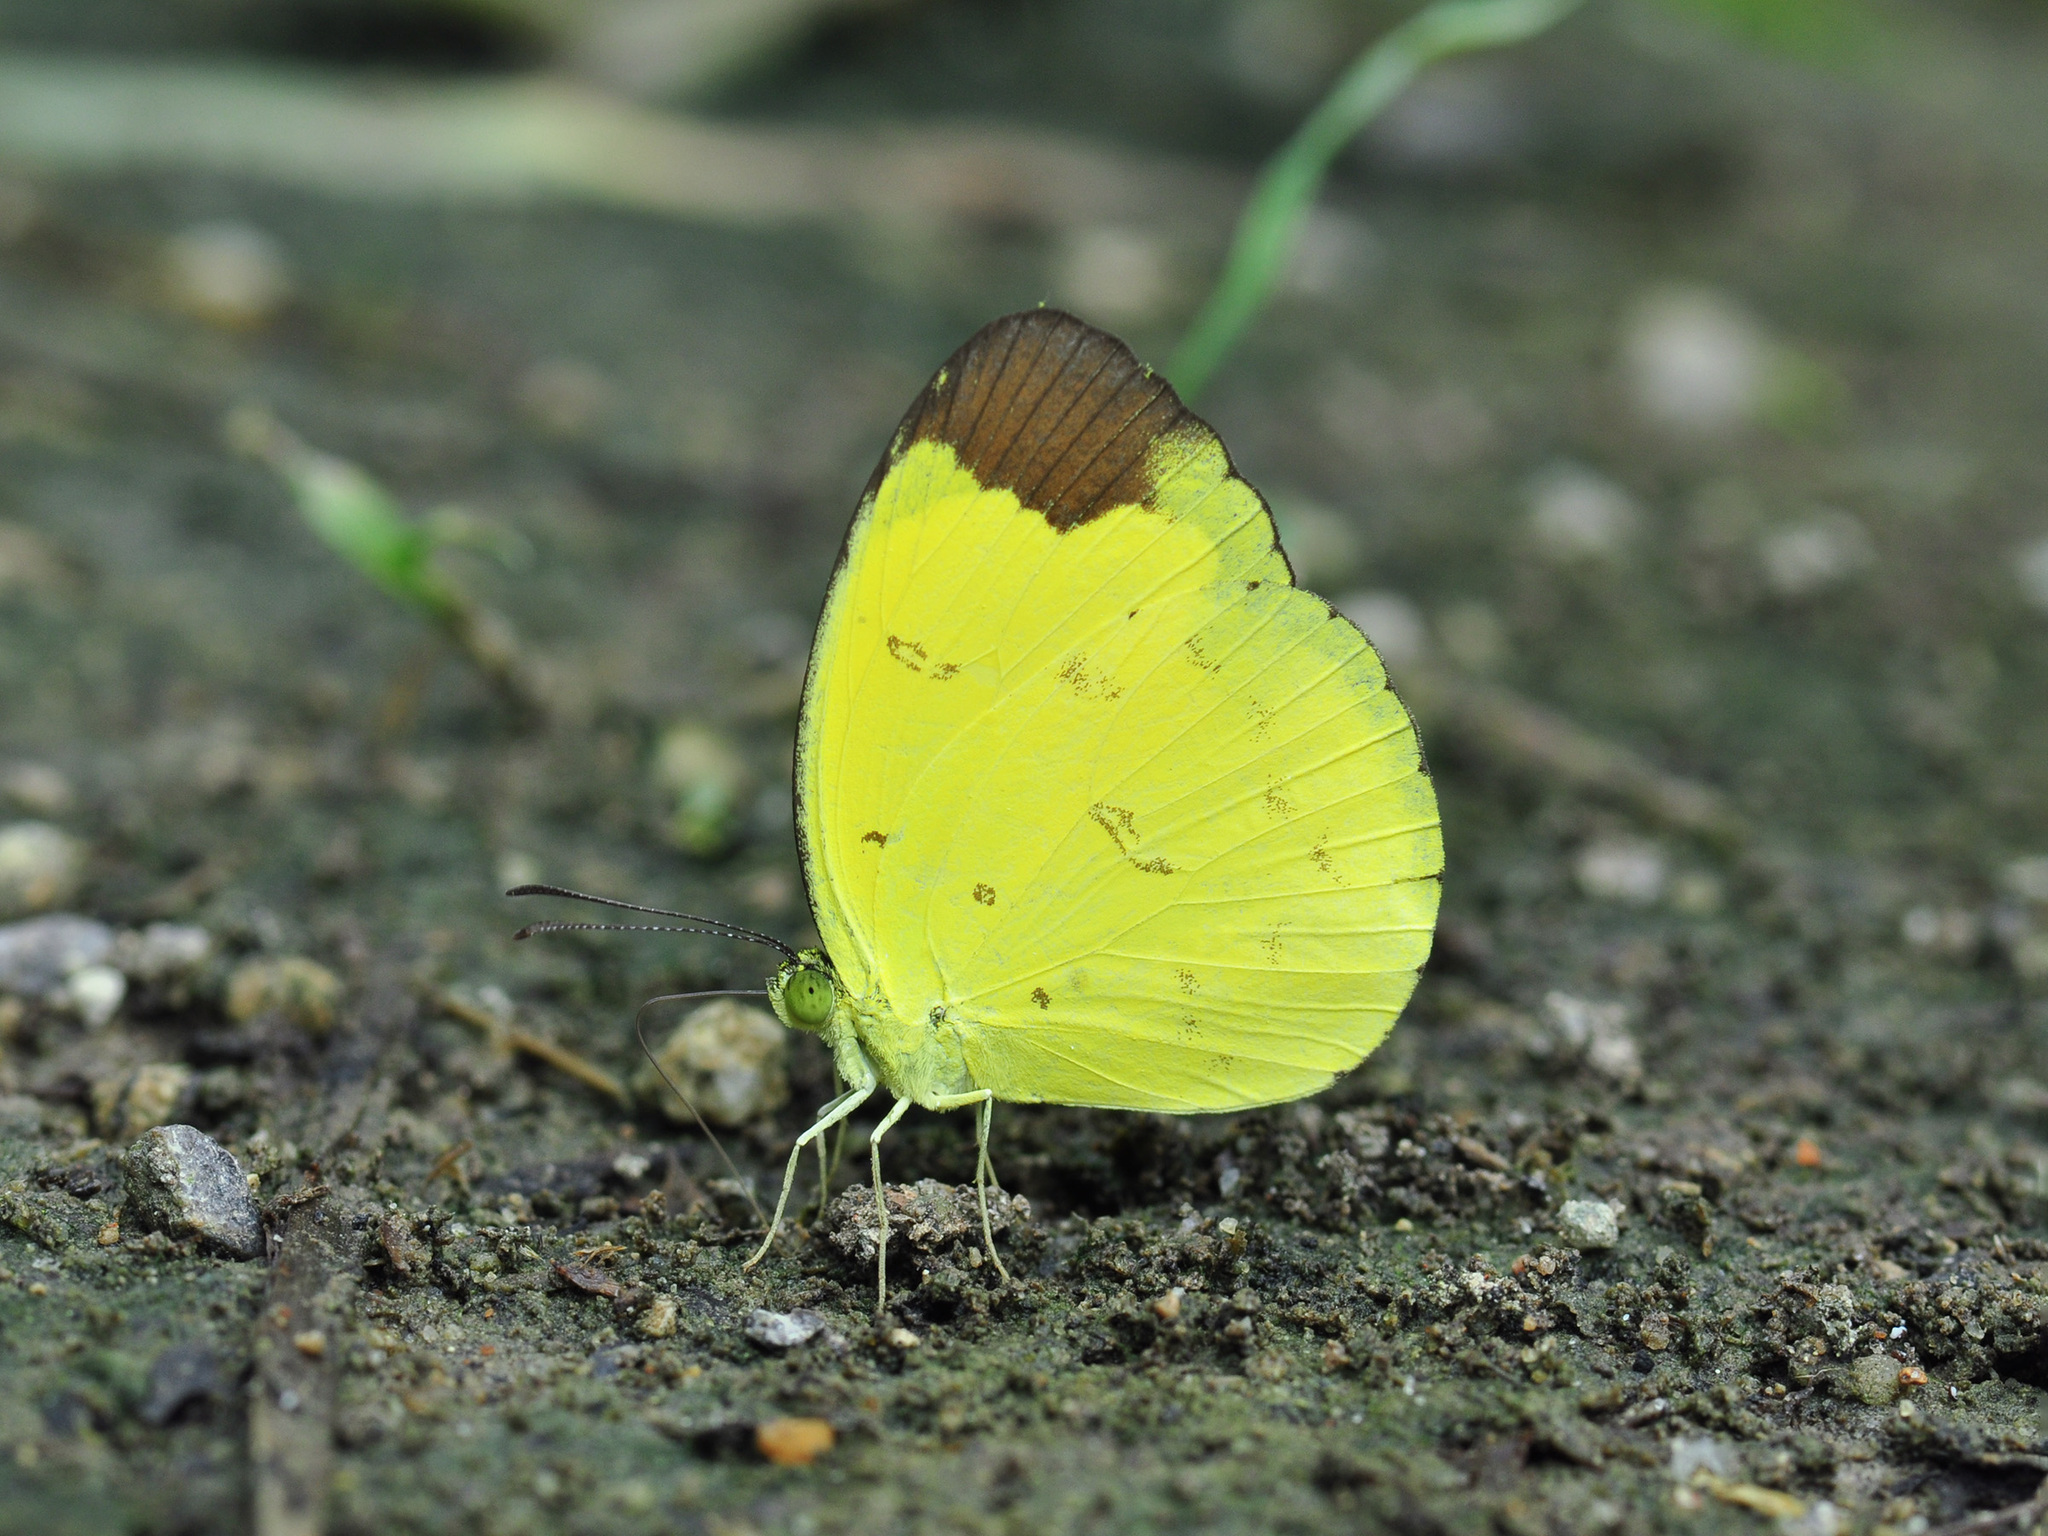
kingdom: Animalia
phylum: Arthropoda
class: Insecta
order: Lepidoptera
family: Pieridae
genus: Eurema
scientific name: Eurema sari
